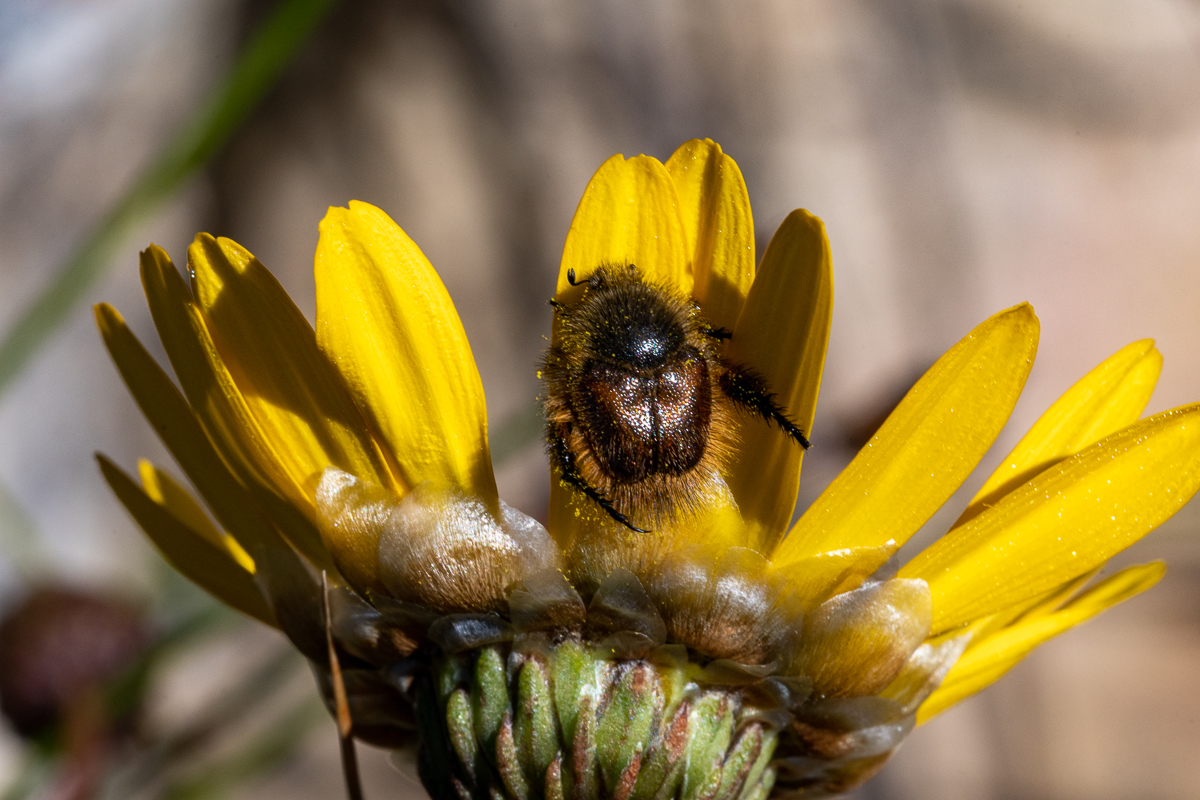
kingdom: Plantae
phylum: Tracheophyta
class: Magnoliopsida
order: Asterales
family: Asteraceae
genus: Ursinia
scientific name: Ursinia paleacea
